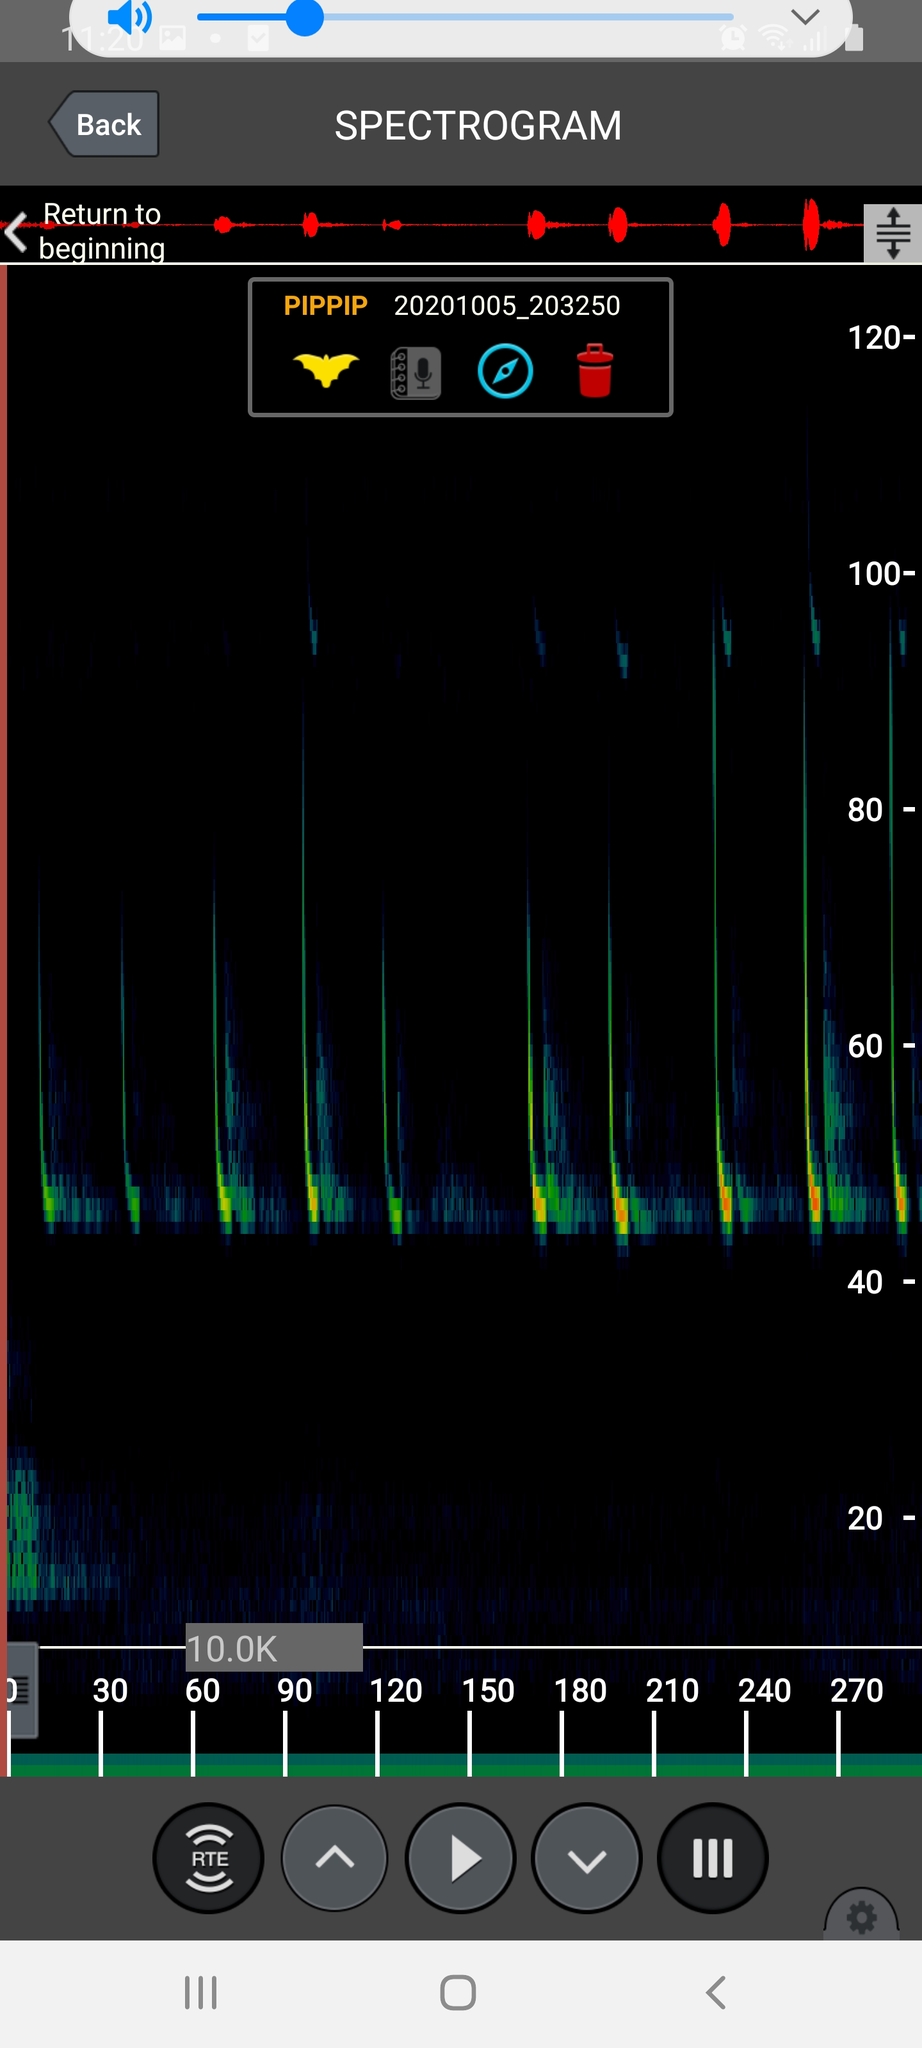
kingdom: Animalia
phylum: Chordata
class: Mammalia
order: Chiroptera
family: Vespertilionidae
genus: Pipistrellus
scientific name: Pipistrellus pipistrellus
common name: Common pipistrelle
